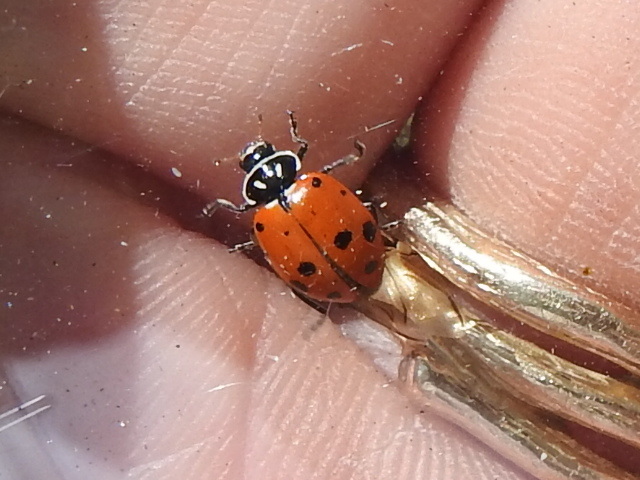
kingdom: Animalia
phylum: Arthropoda
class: Insecta
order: Coleoptera
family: Coccinellidae
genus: Hippodamia
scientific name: Hippodamia convergens
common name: Convergent lady beetle
